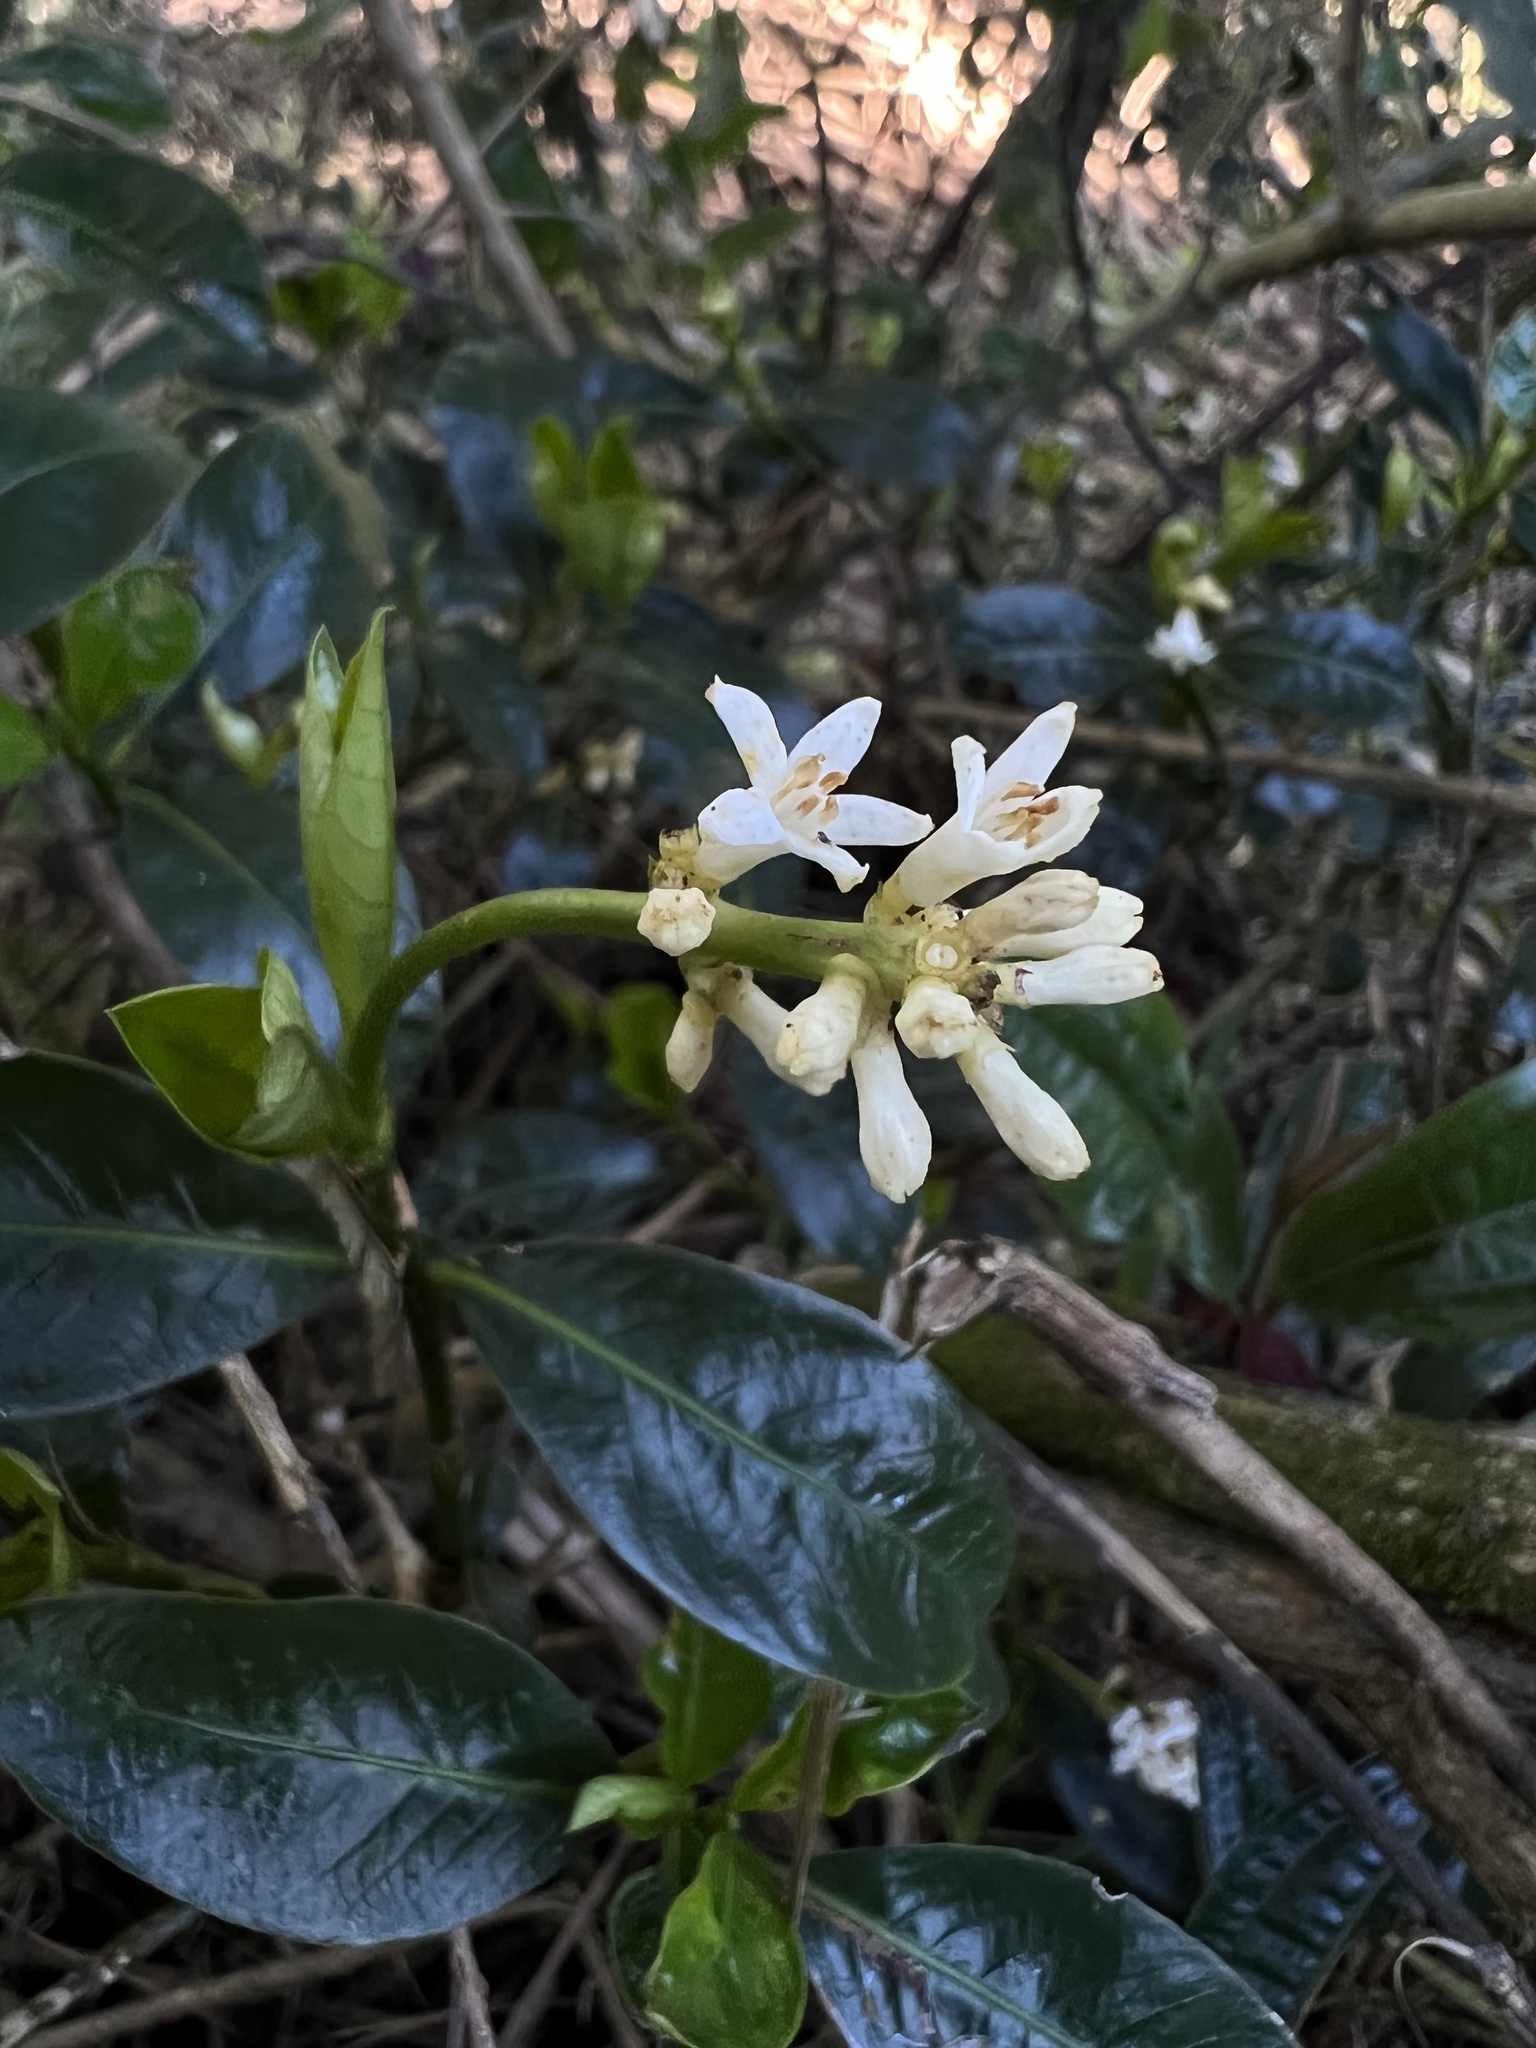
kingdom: Plantae
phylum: Tracheophyta
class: Magnoliopsida
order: Gentianales
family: Rubiaceae
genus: Palicourea
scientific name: Palicourea boqueronensis
